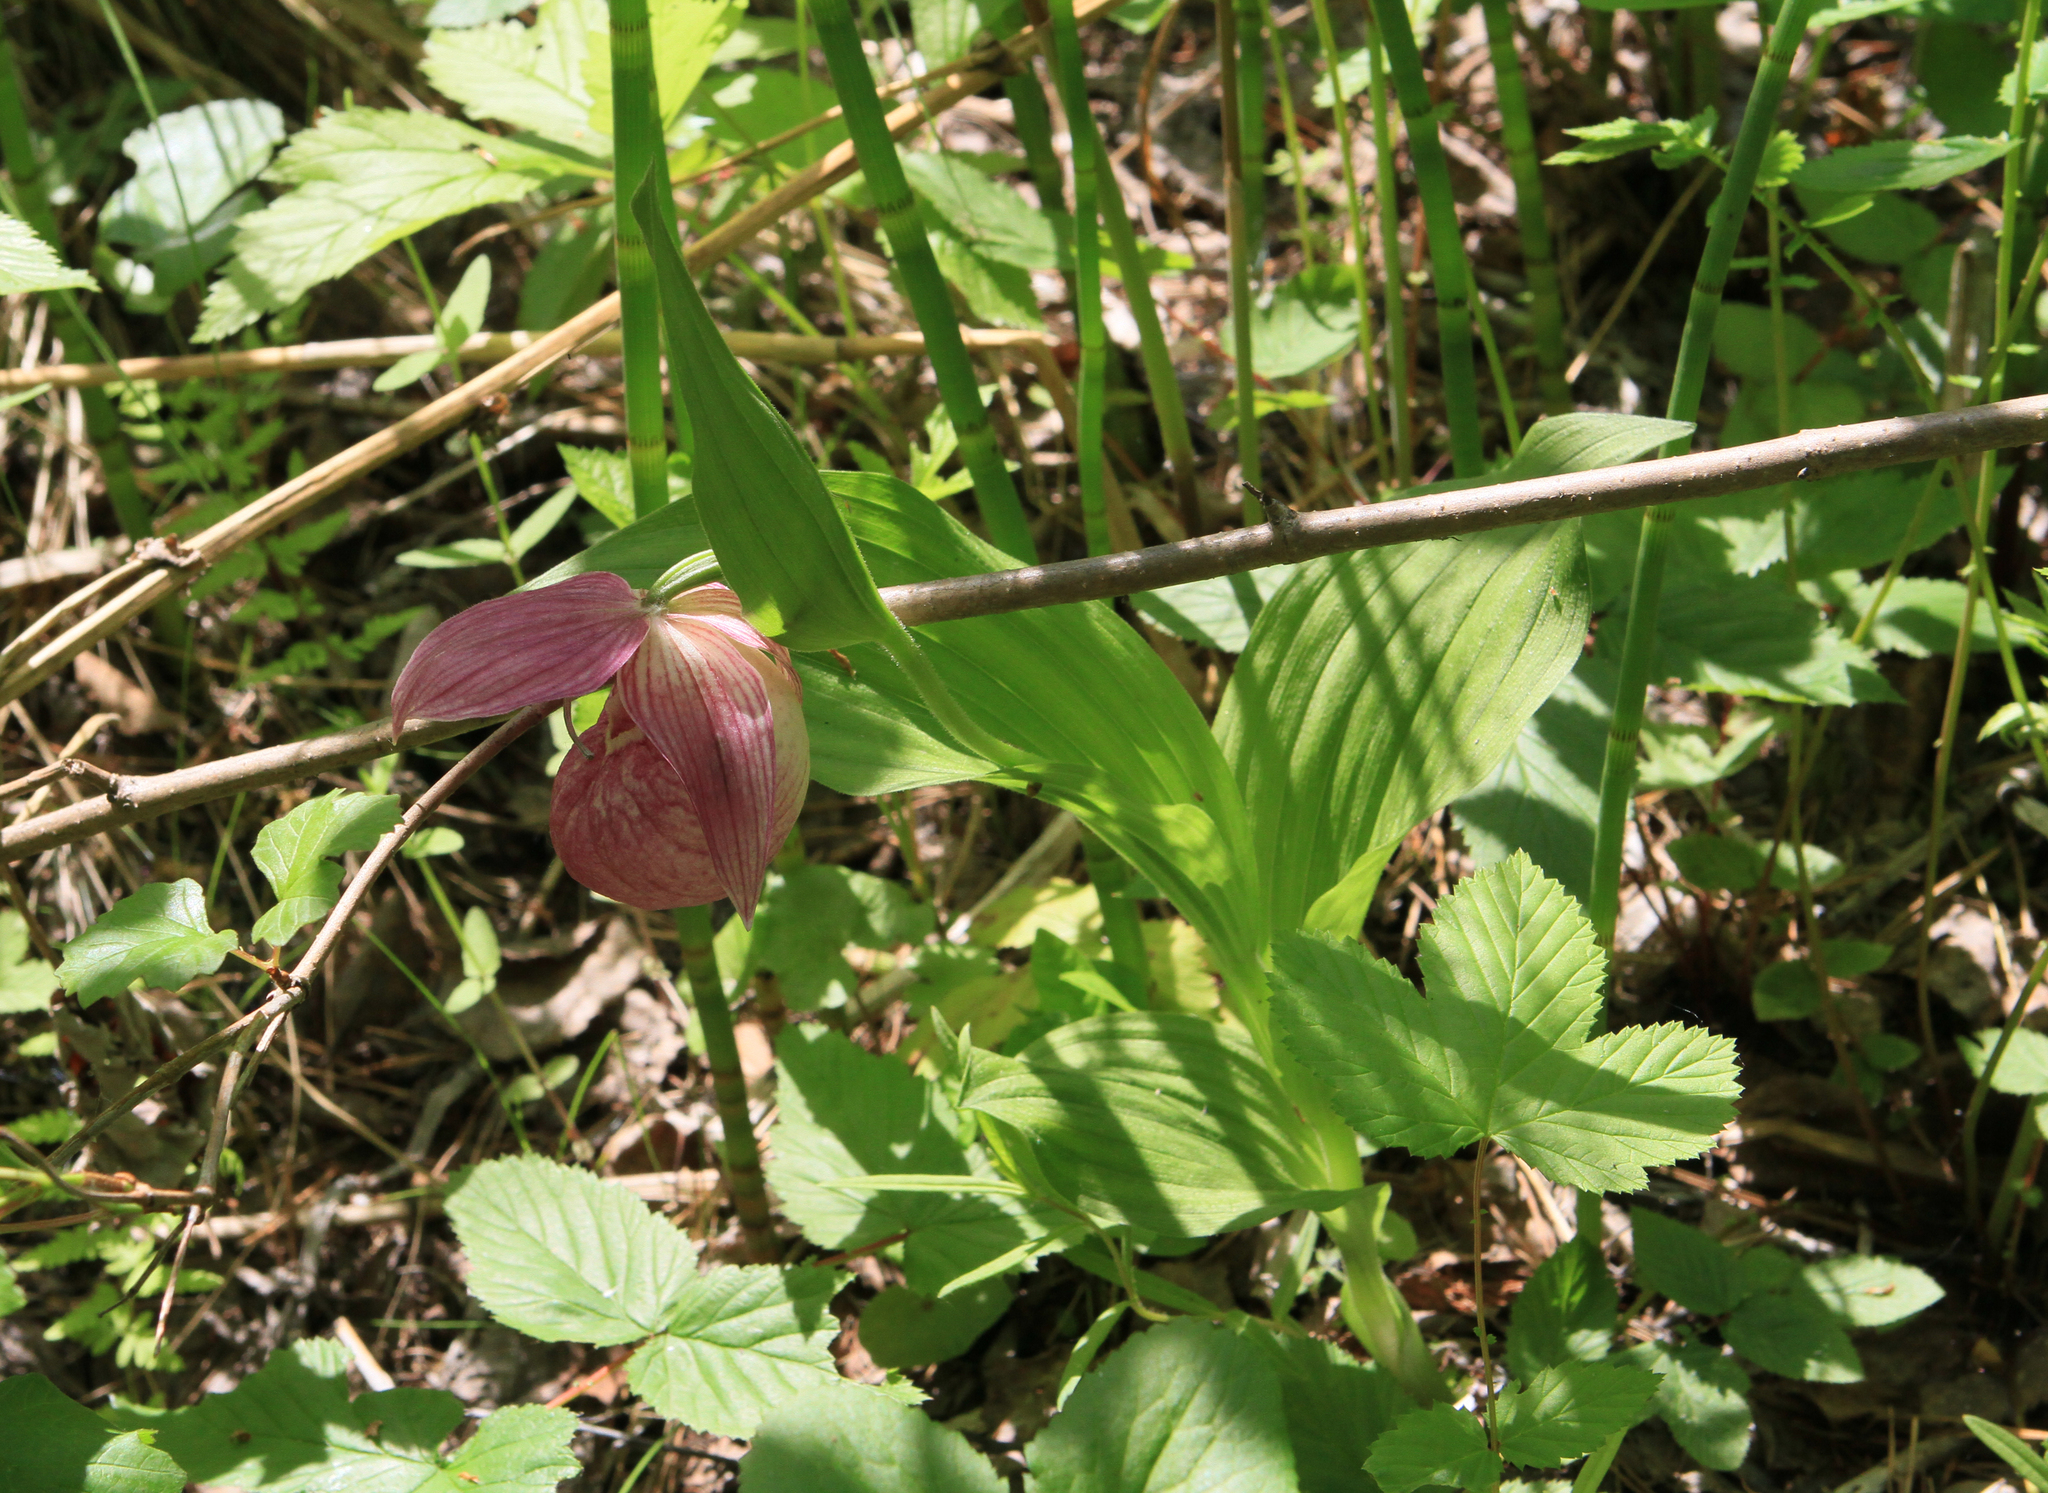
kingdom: Plantae
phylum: Tracheophyta
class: Liliopsida
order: Asparagales
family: Orchidaceae
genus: Cypripedium
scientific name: Cypripedium macranthos
